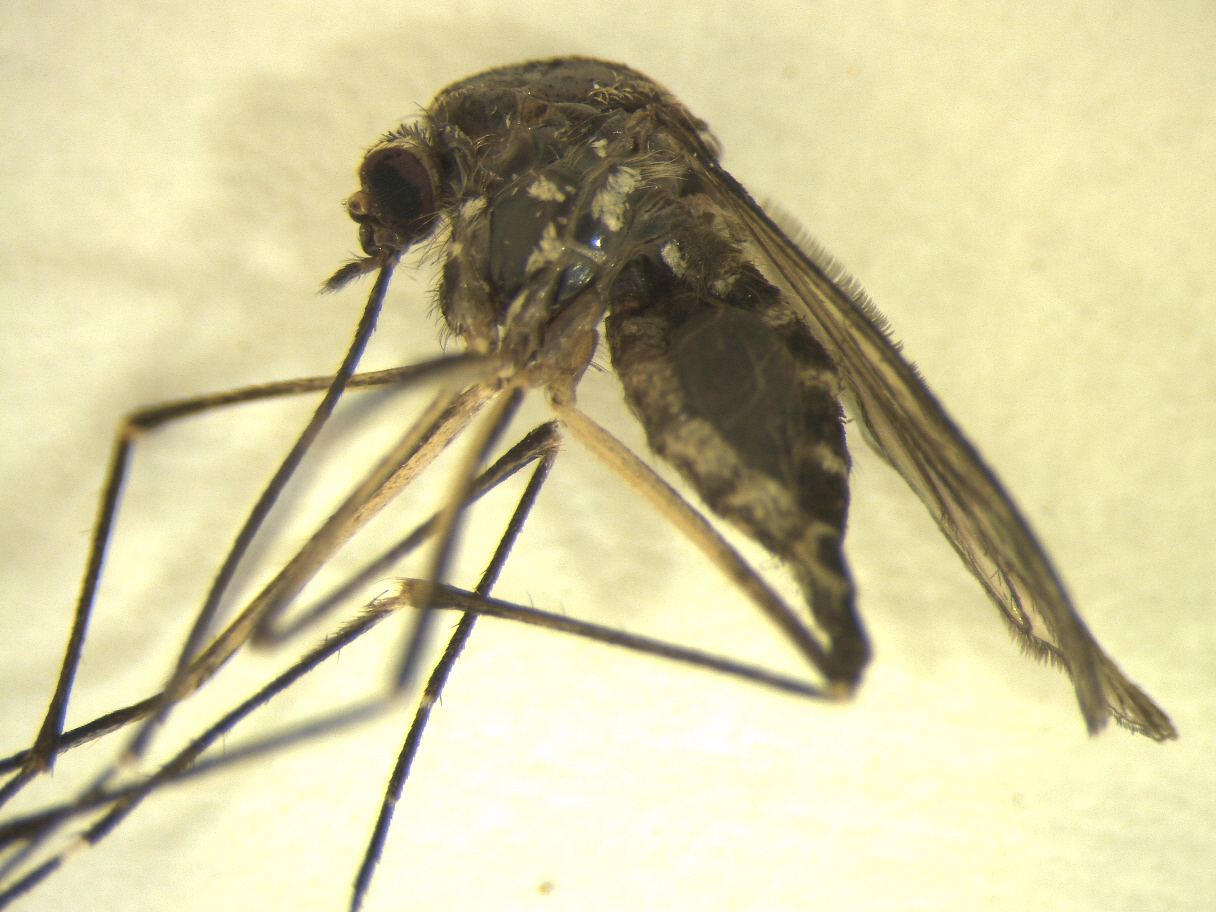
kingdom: Animalia
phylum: Arthropoda
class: Insecta
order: Diptera
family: Culicidae
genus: Aedes
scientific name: Aedes antipodeus
